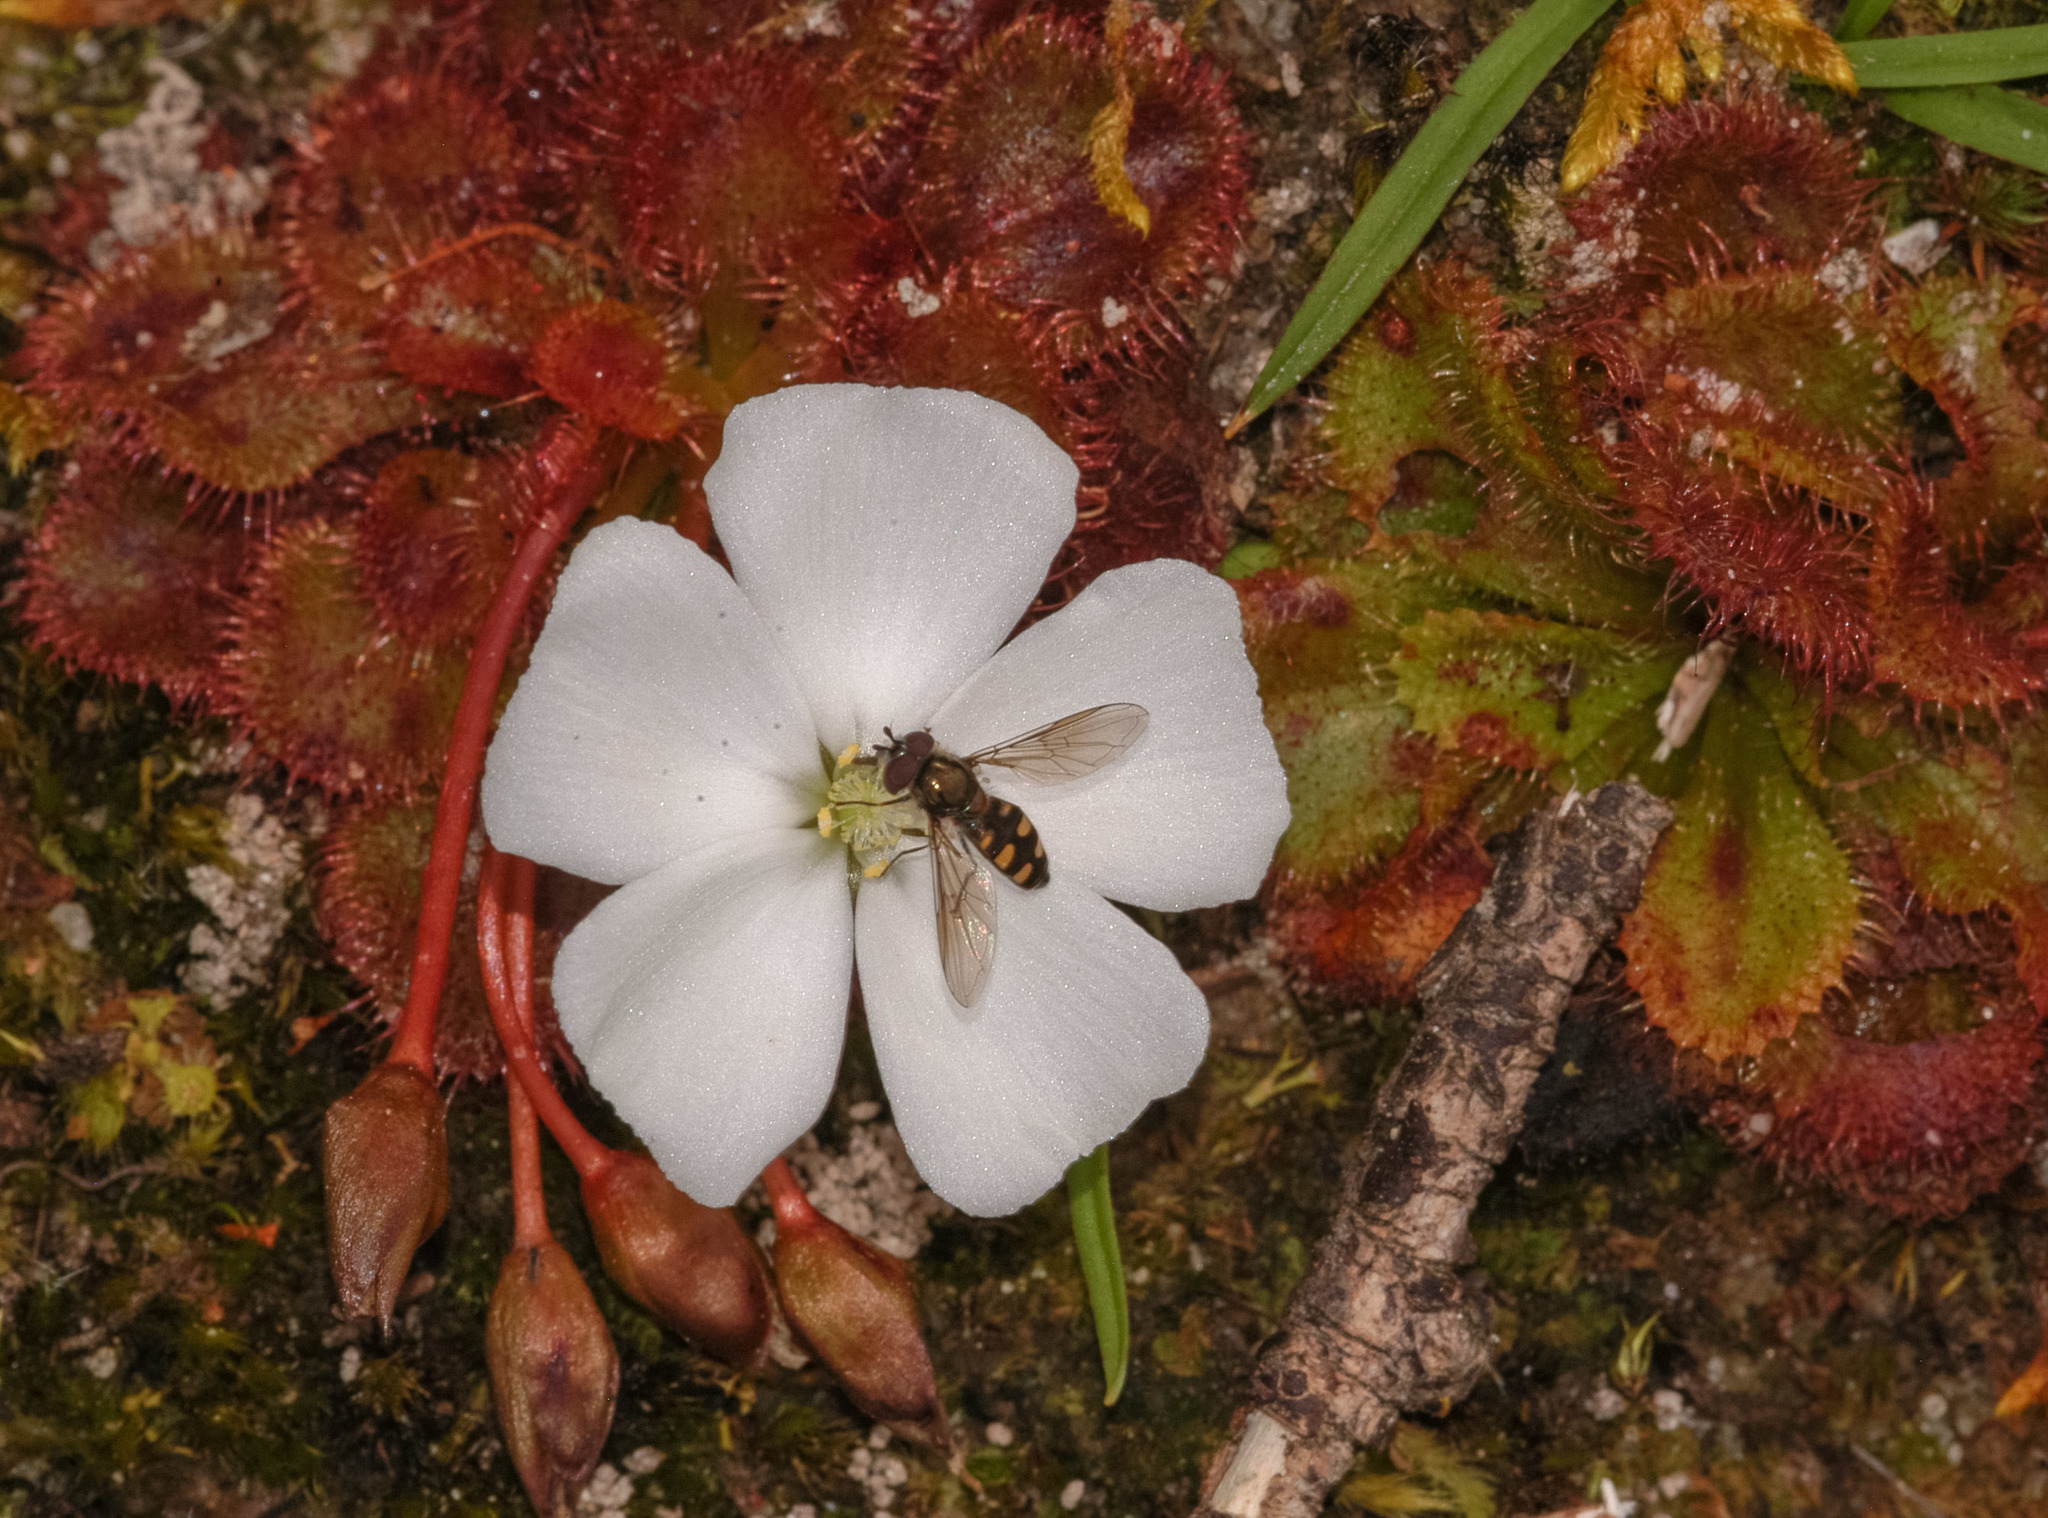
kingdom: Plantae
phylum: Tracheophyta
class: Magnoliopsida
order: Caryophyllales
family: Droseraceae
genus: Drosera
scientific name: Drosera whittakeri
